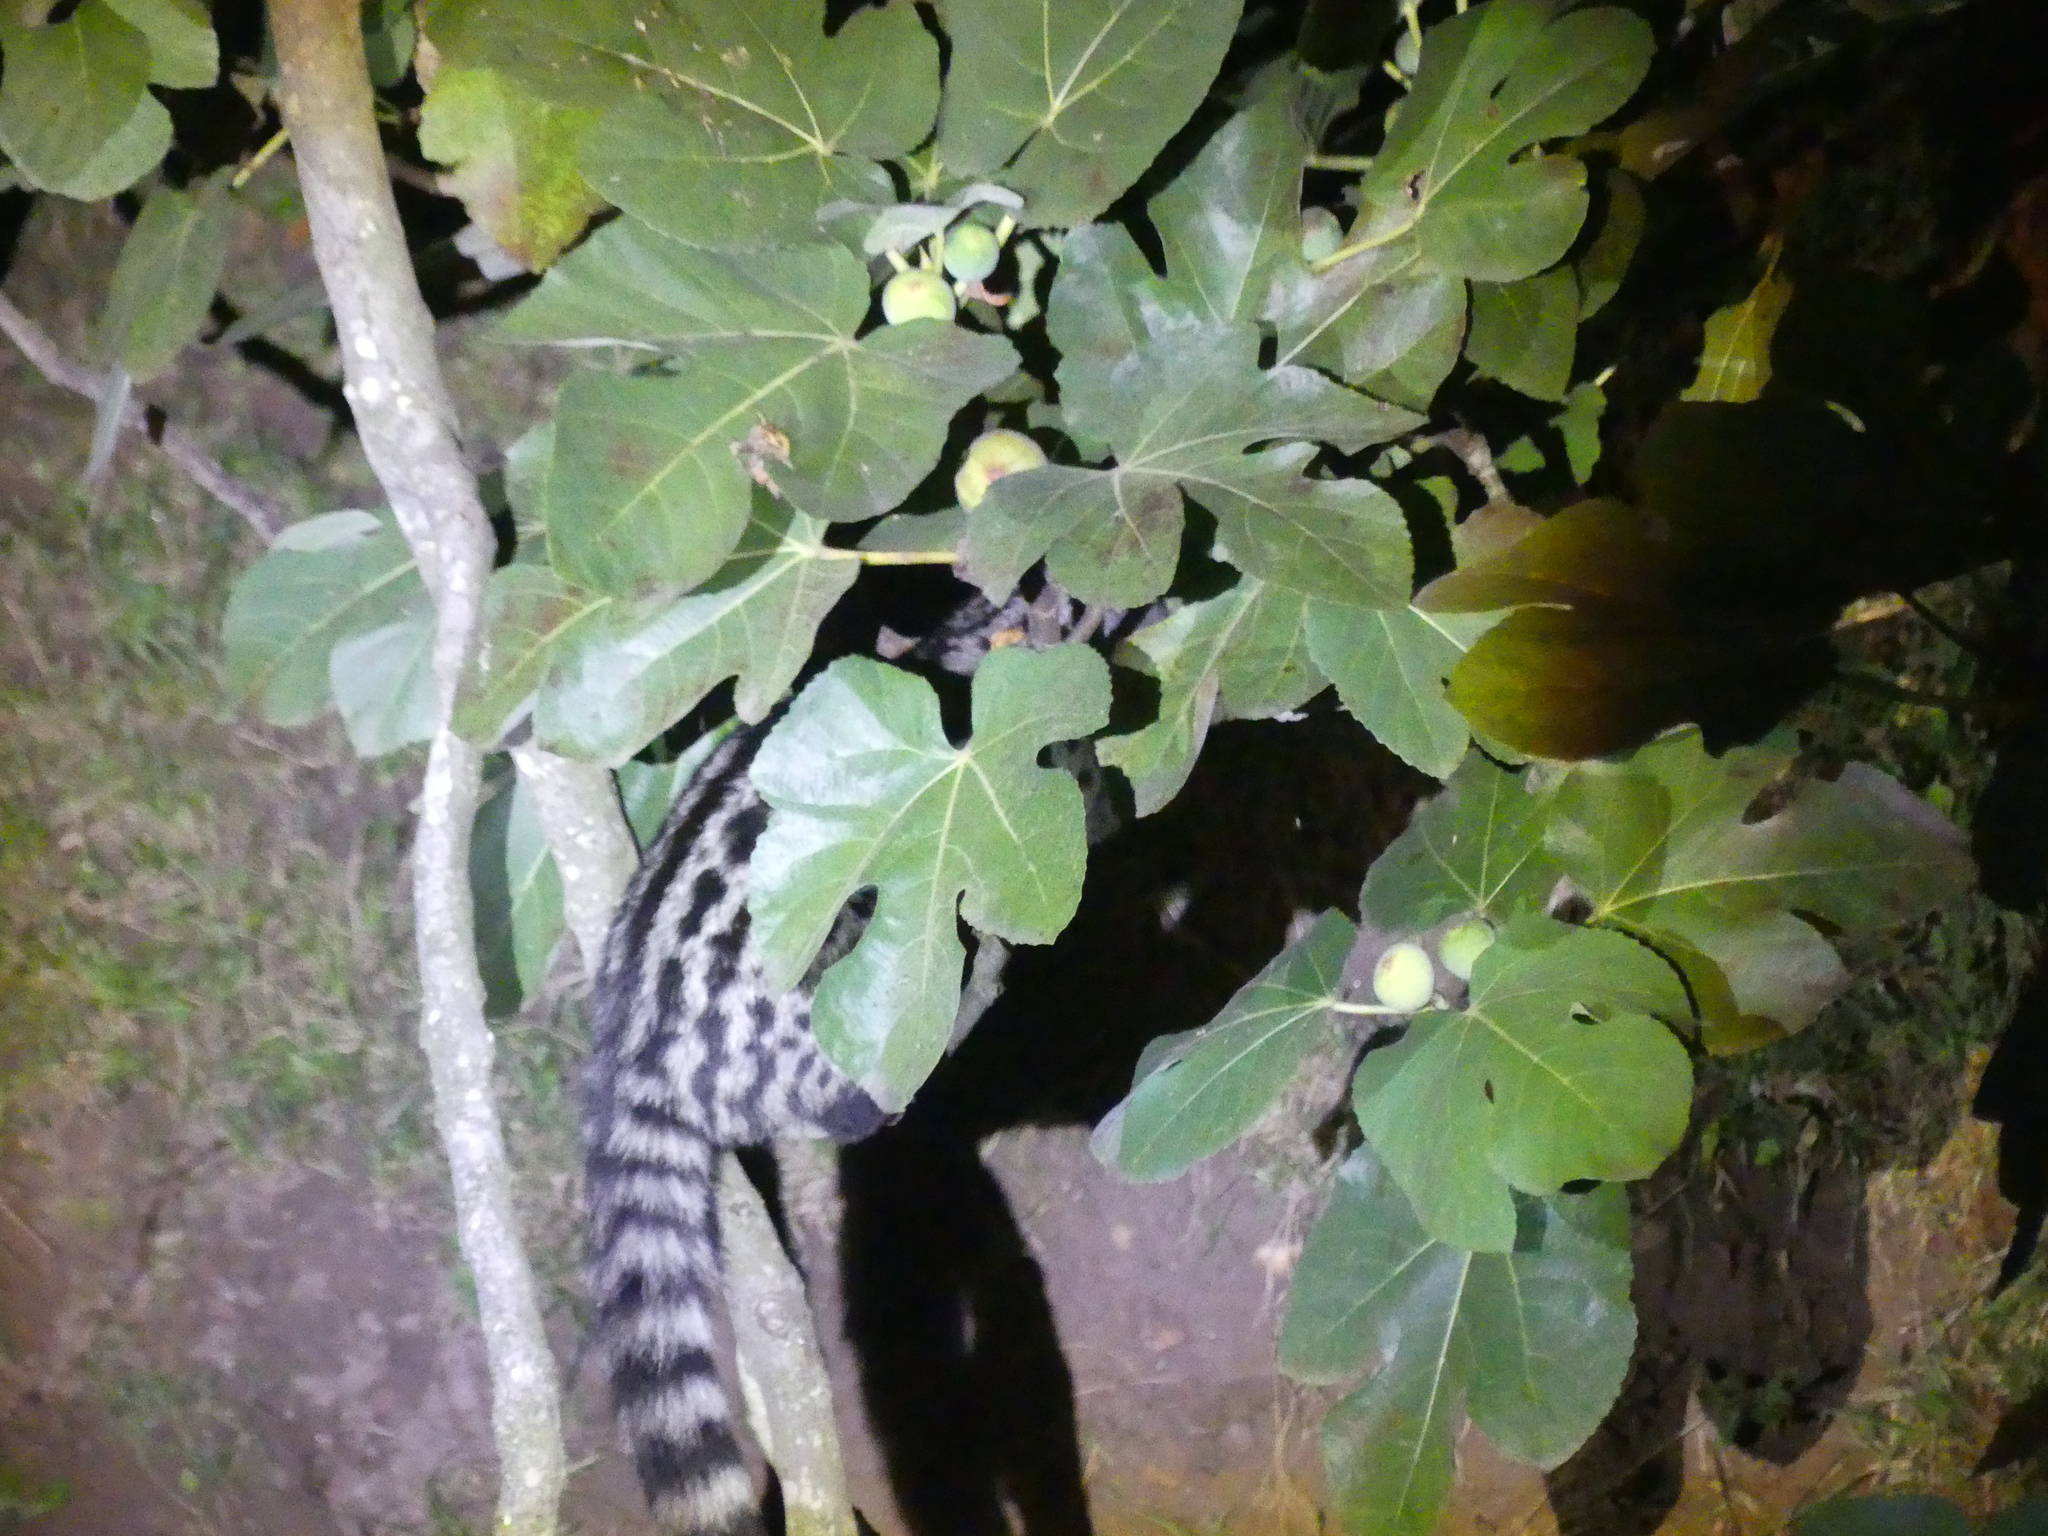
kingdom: Animalia
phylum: Chordata
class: Mammalia
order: Carnivora
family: Viverridae
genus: Genetta
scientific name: Genetta genetta
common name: Common genet
